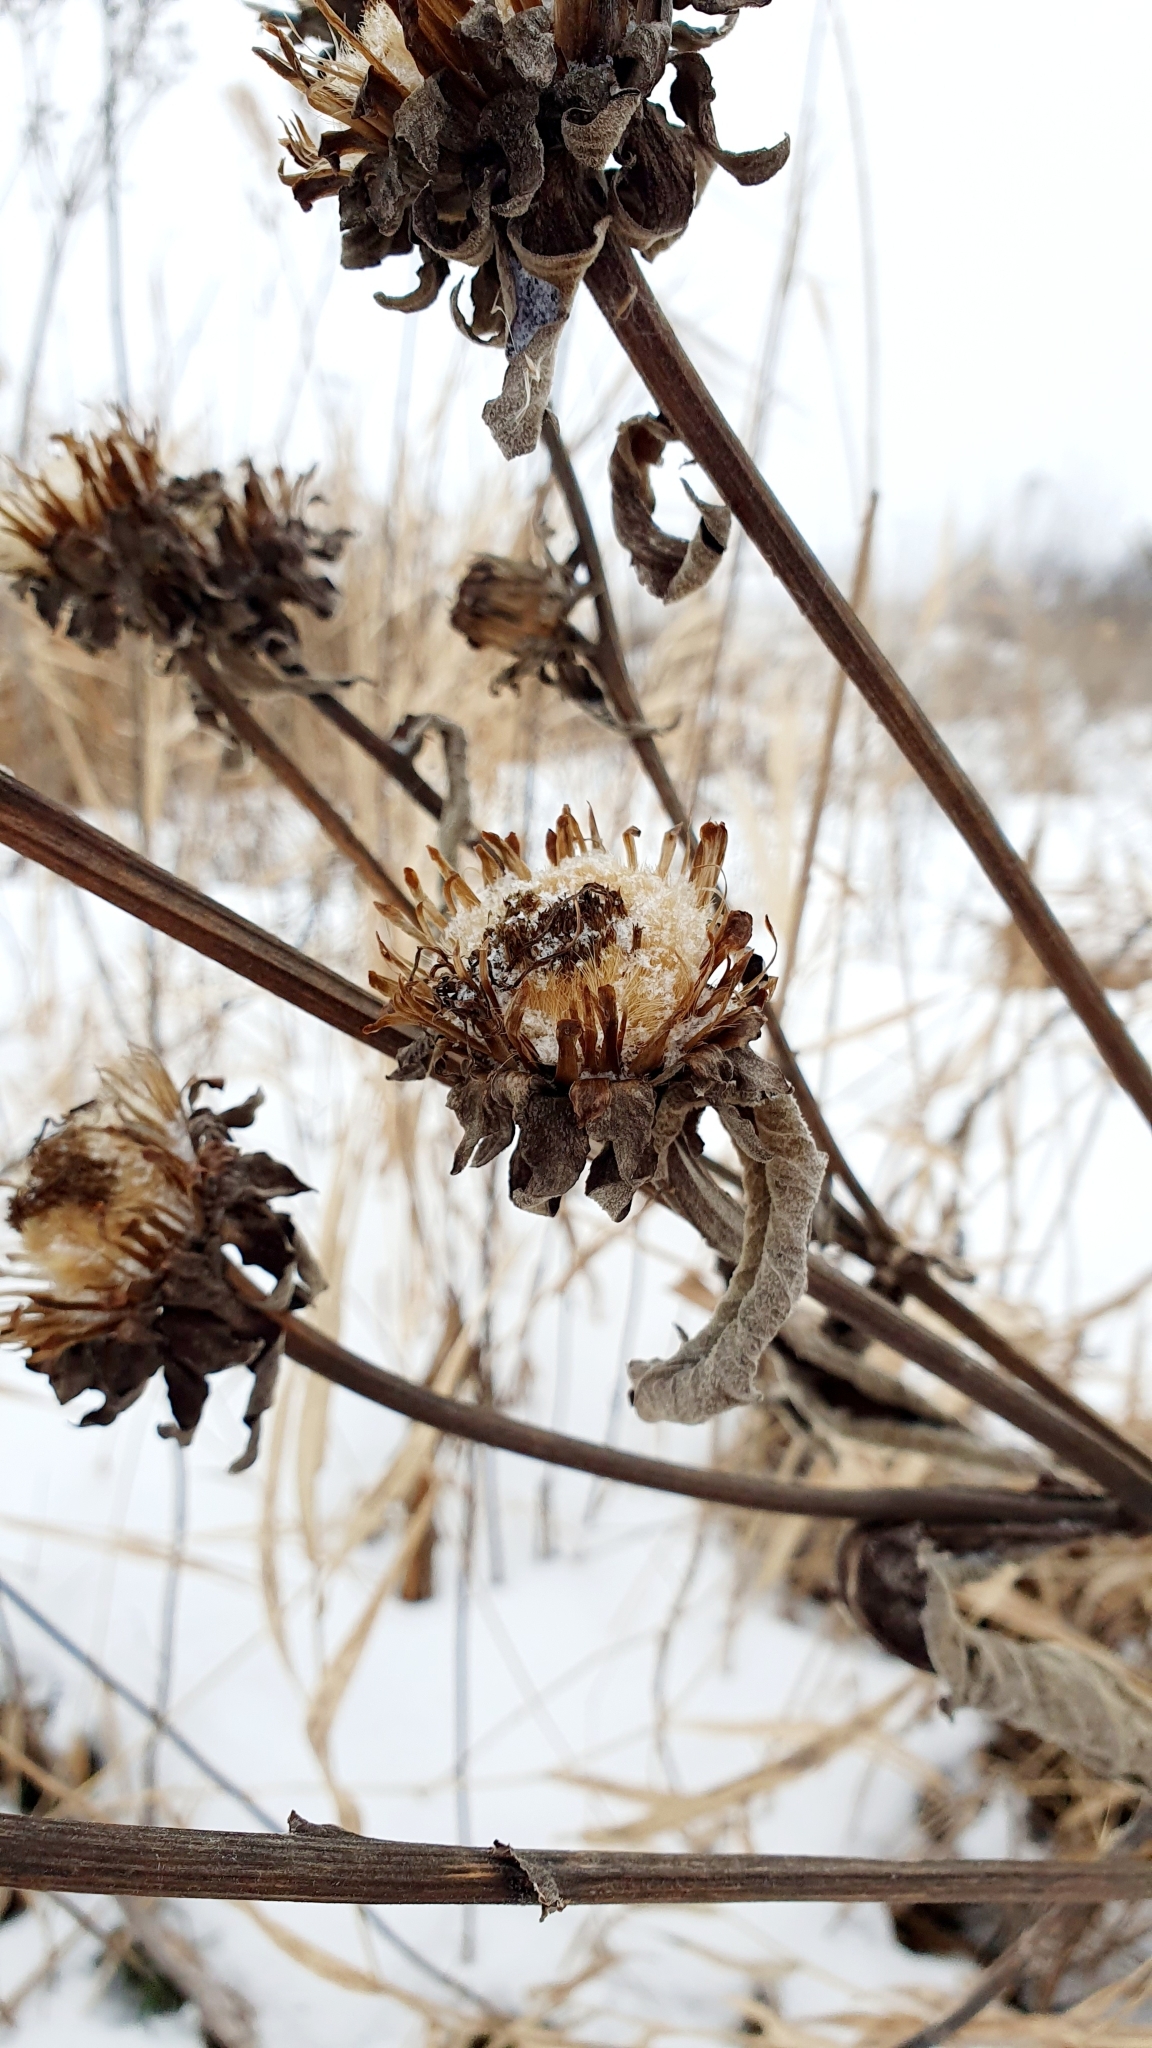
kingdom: Plantae
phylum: Tracheophyta
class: Magnoliopsida
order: Asterales
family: Asteraceae
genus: Inula
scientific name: Inula helenium
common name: Elecampane
